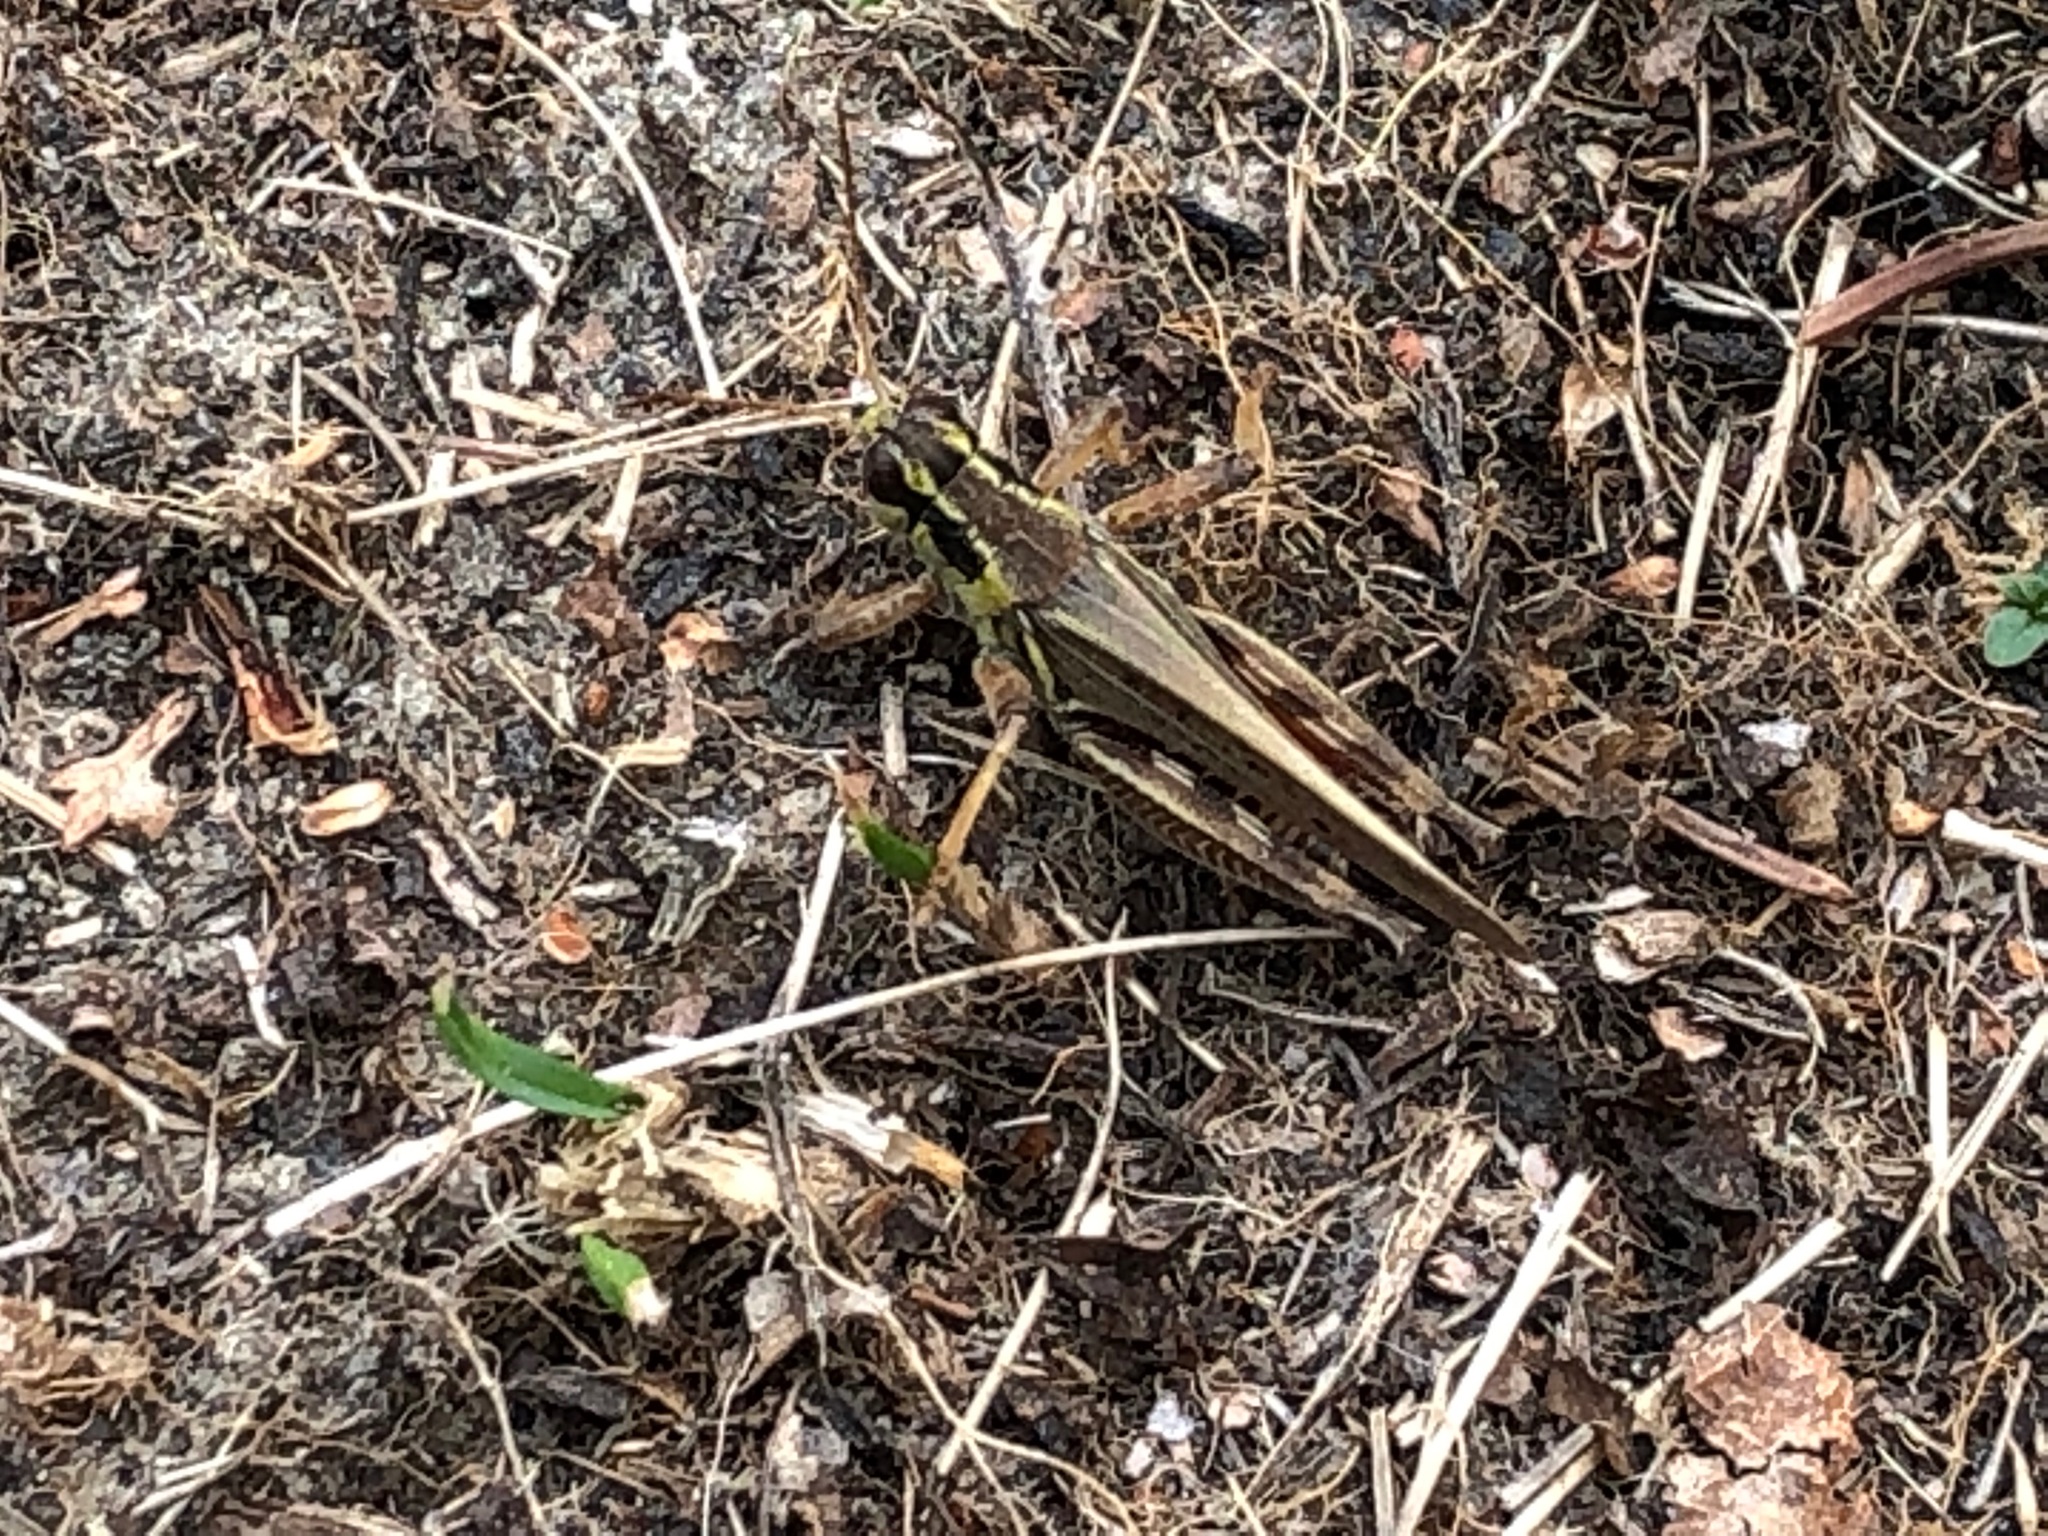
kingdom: Animalia
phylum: Arthropoda
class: Insecta
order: Orthoptera
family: Acrididae
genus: Melanoplus
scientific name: Melanoplus borealis
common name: Northern grasshopper
